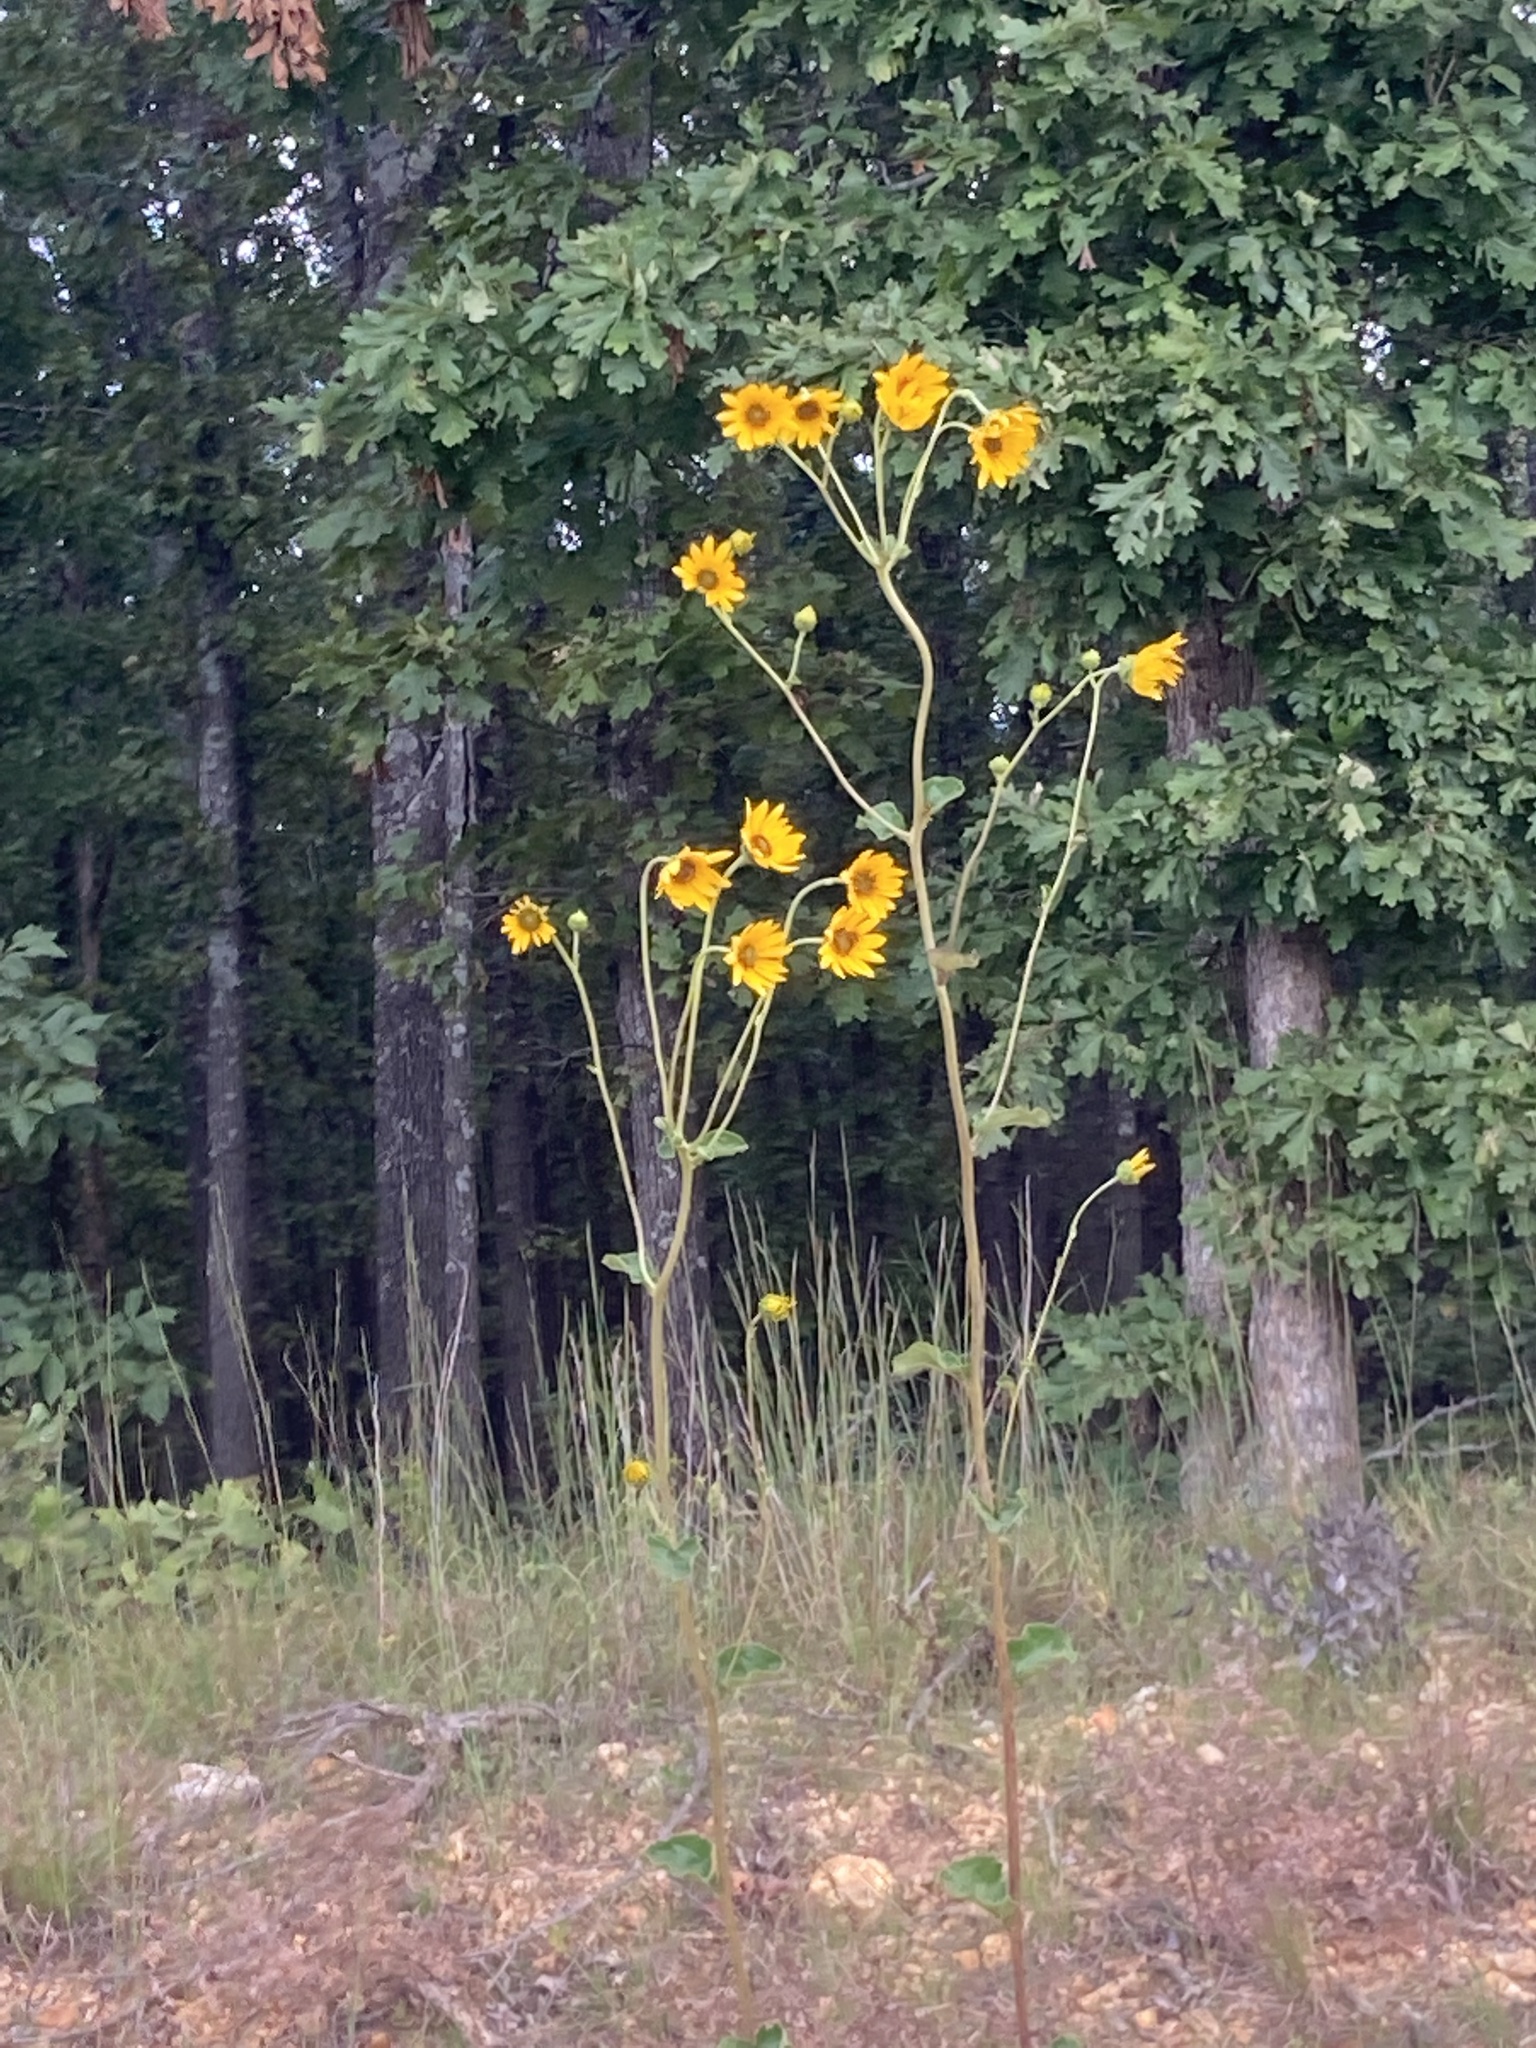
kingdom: Plantae
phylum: Tracheophyta
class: Magnoliopsida
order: Asterales
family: Asteraceae
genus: Helianthus
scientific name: Helianthus silphioides
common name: Odorous sunflower
